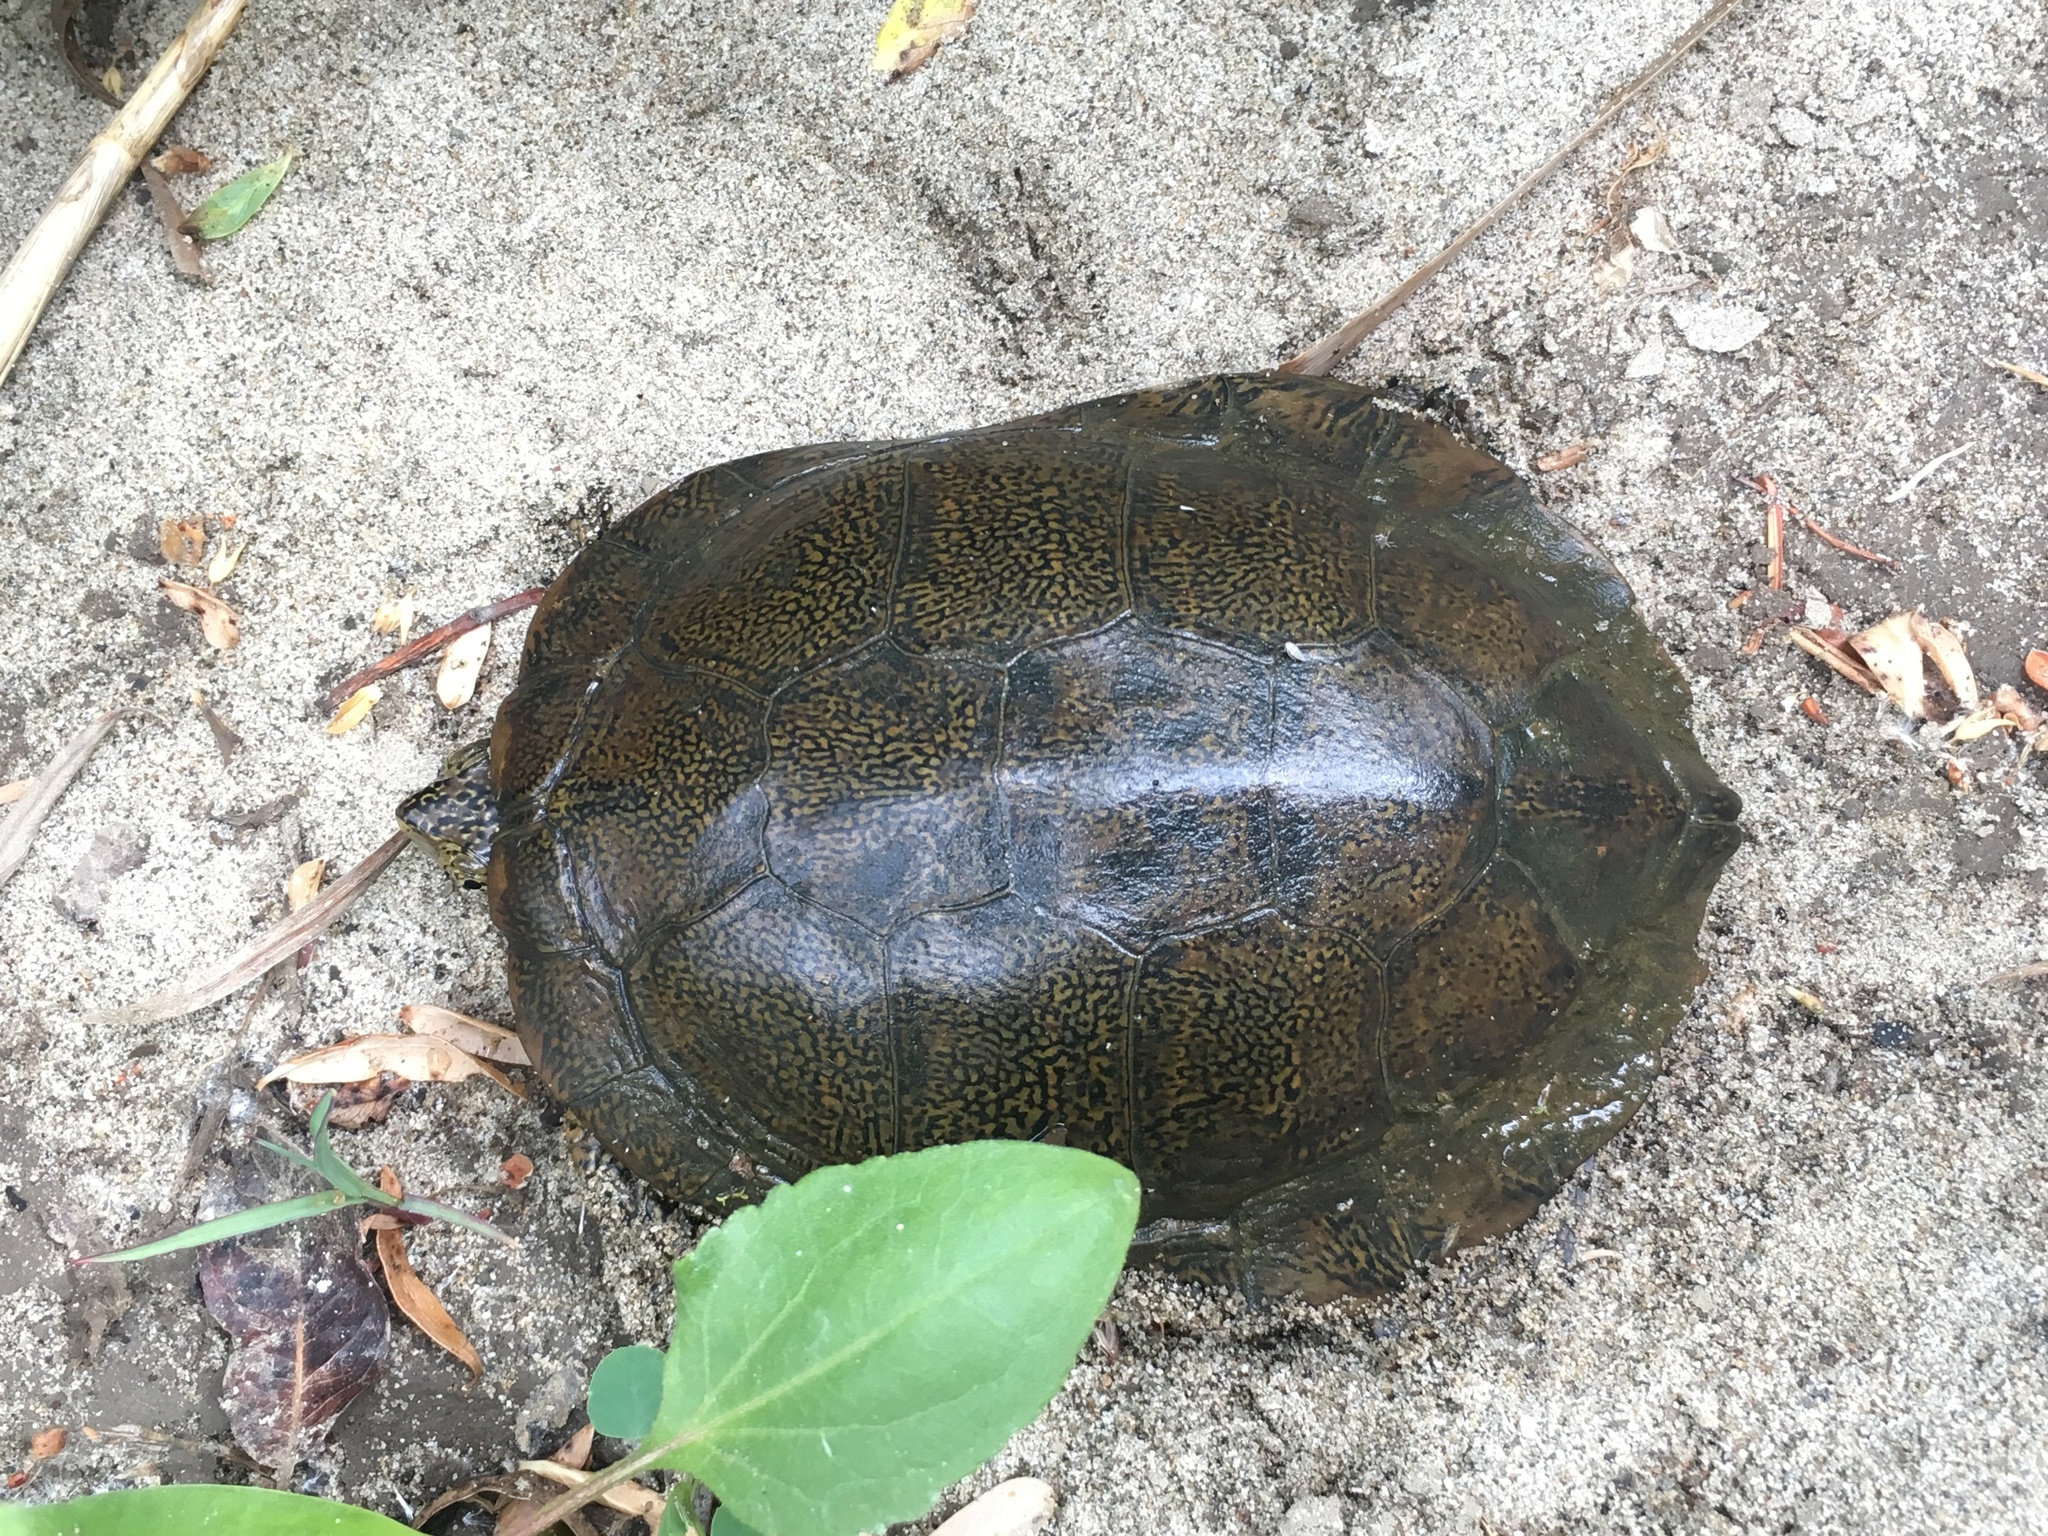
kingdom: Animalia
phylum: Chordata
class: Testudines
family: Emydidae
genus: Actinemys
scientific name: Actinemys marmorata
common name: Western pond turtle
